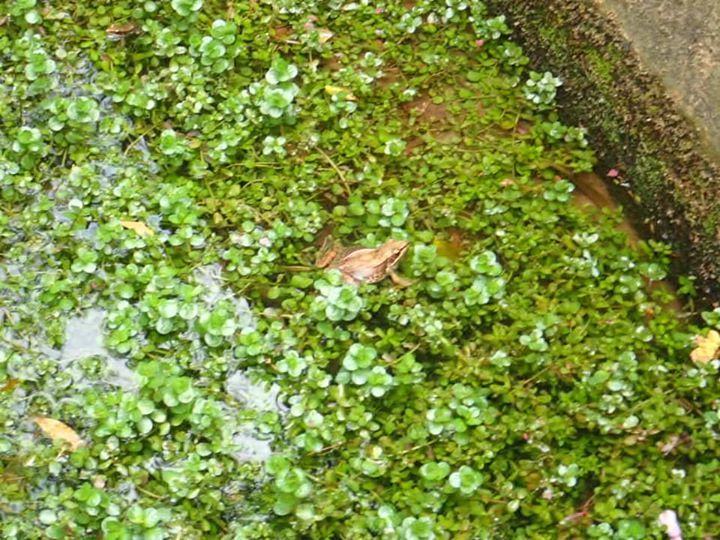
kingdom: Animalia
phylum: Chordata
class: Amphibia
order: Anura
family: Ranidae
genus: Sylvirana
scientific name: Sylvirana guentheri
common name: Guenther's amoy frog
